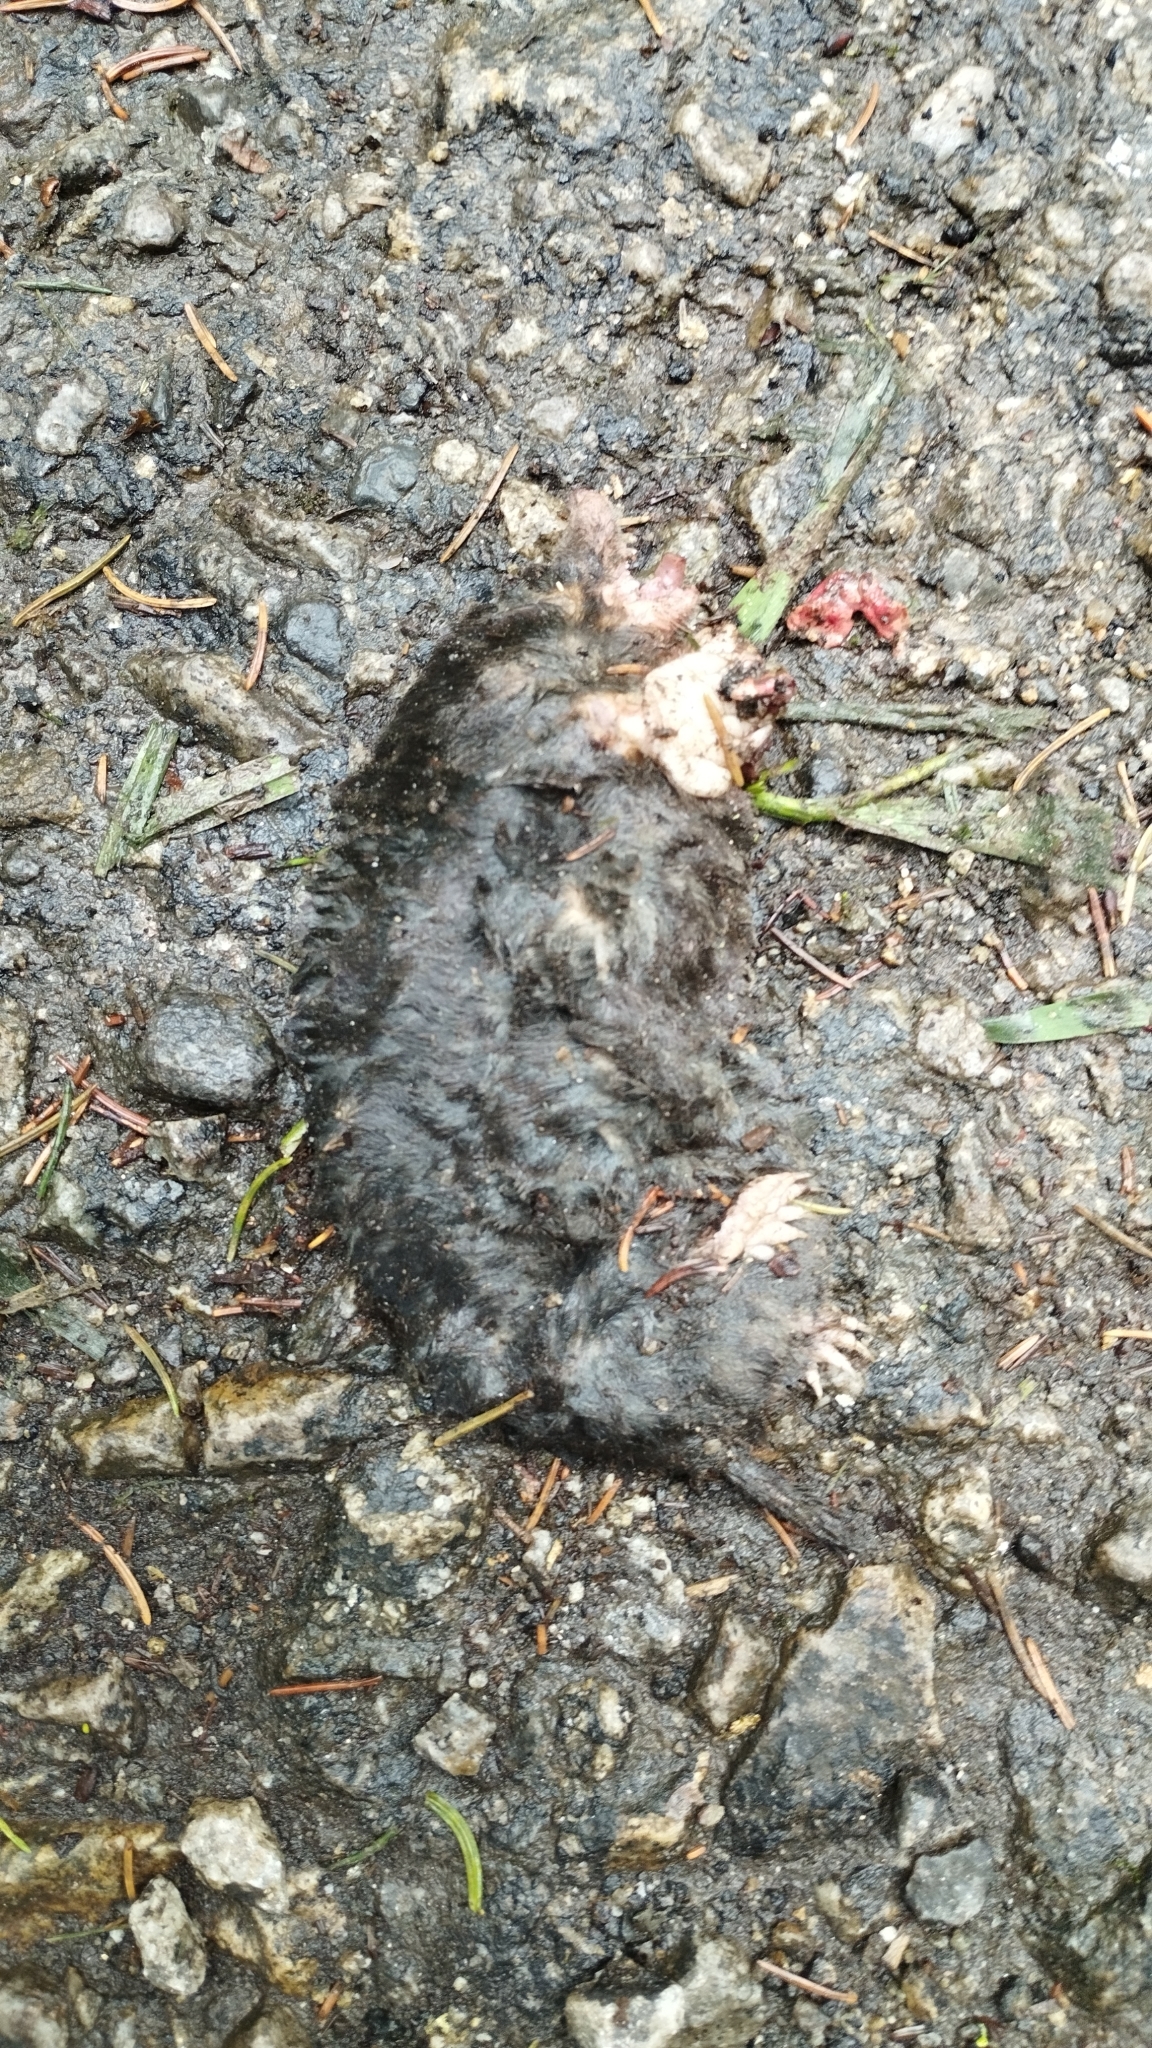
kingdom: Animalia
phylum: Chordata
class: Mammalia
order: Soricomorpha
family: Talpidae
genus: Talpa
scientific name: Talpa europaea
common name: European mole
